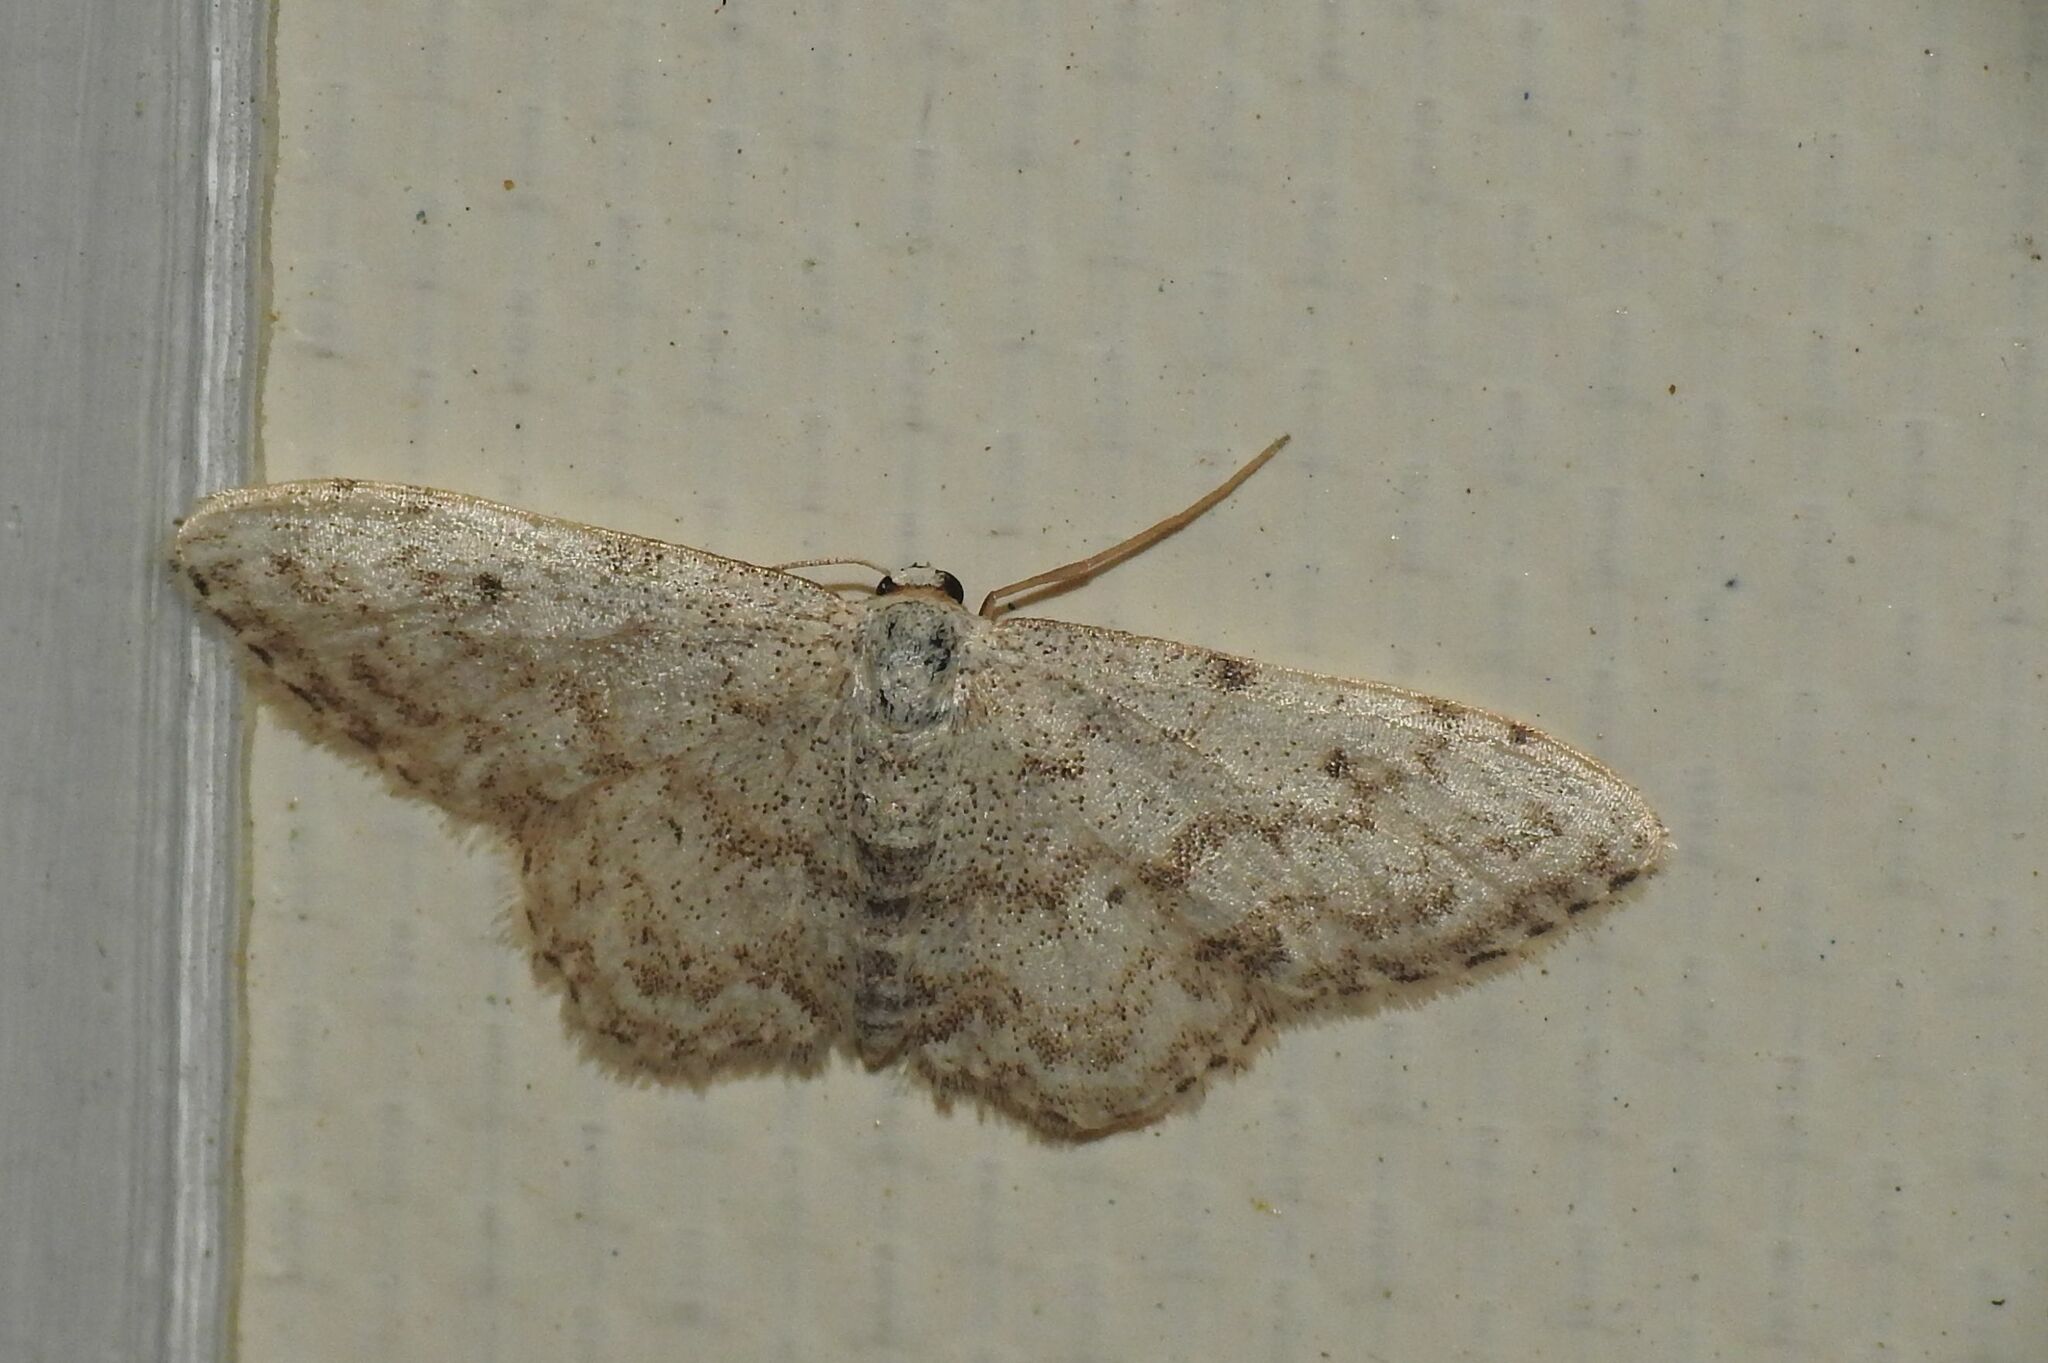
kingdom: Animalia
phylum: Arthropoda
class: Insecta
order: Lepidoptera
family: Geometridae
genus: Idaea
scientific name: Idaea camparia
